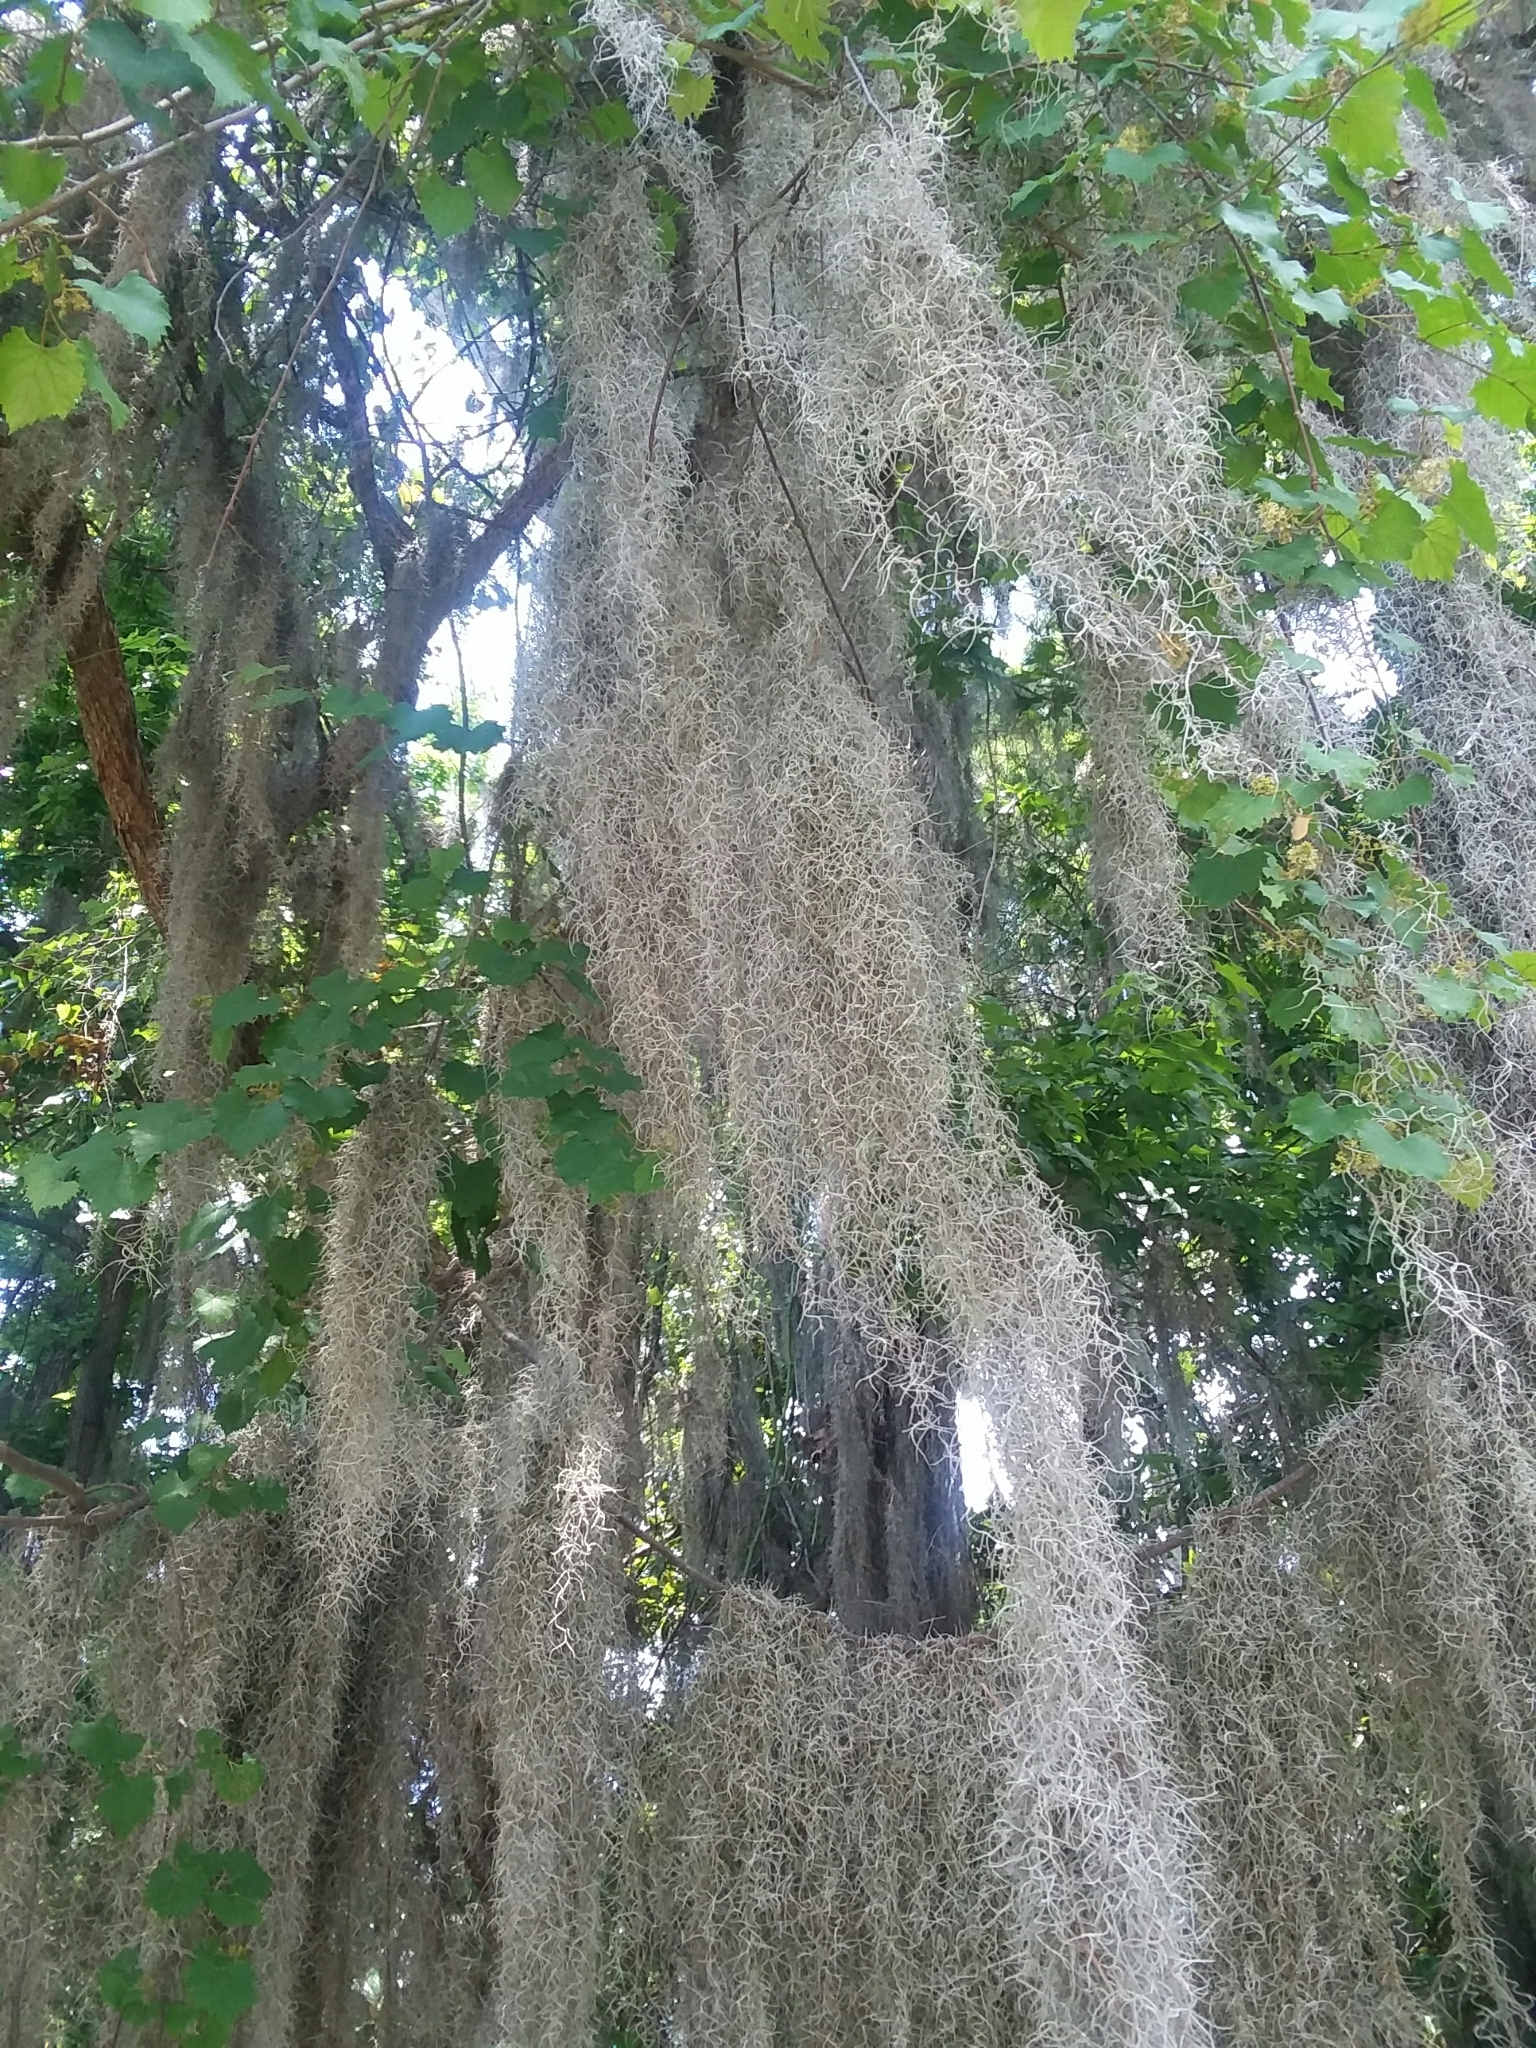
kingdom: Plantae
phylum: Tracheophyta
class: Liliopsida
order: Poales
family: Bromeliaceae
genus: Tillandsia
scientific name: Tillandsia usneoides
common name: Spanish moss
